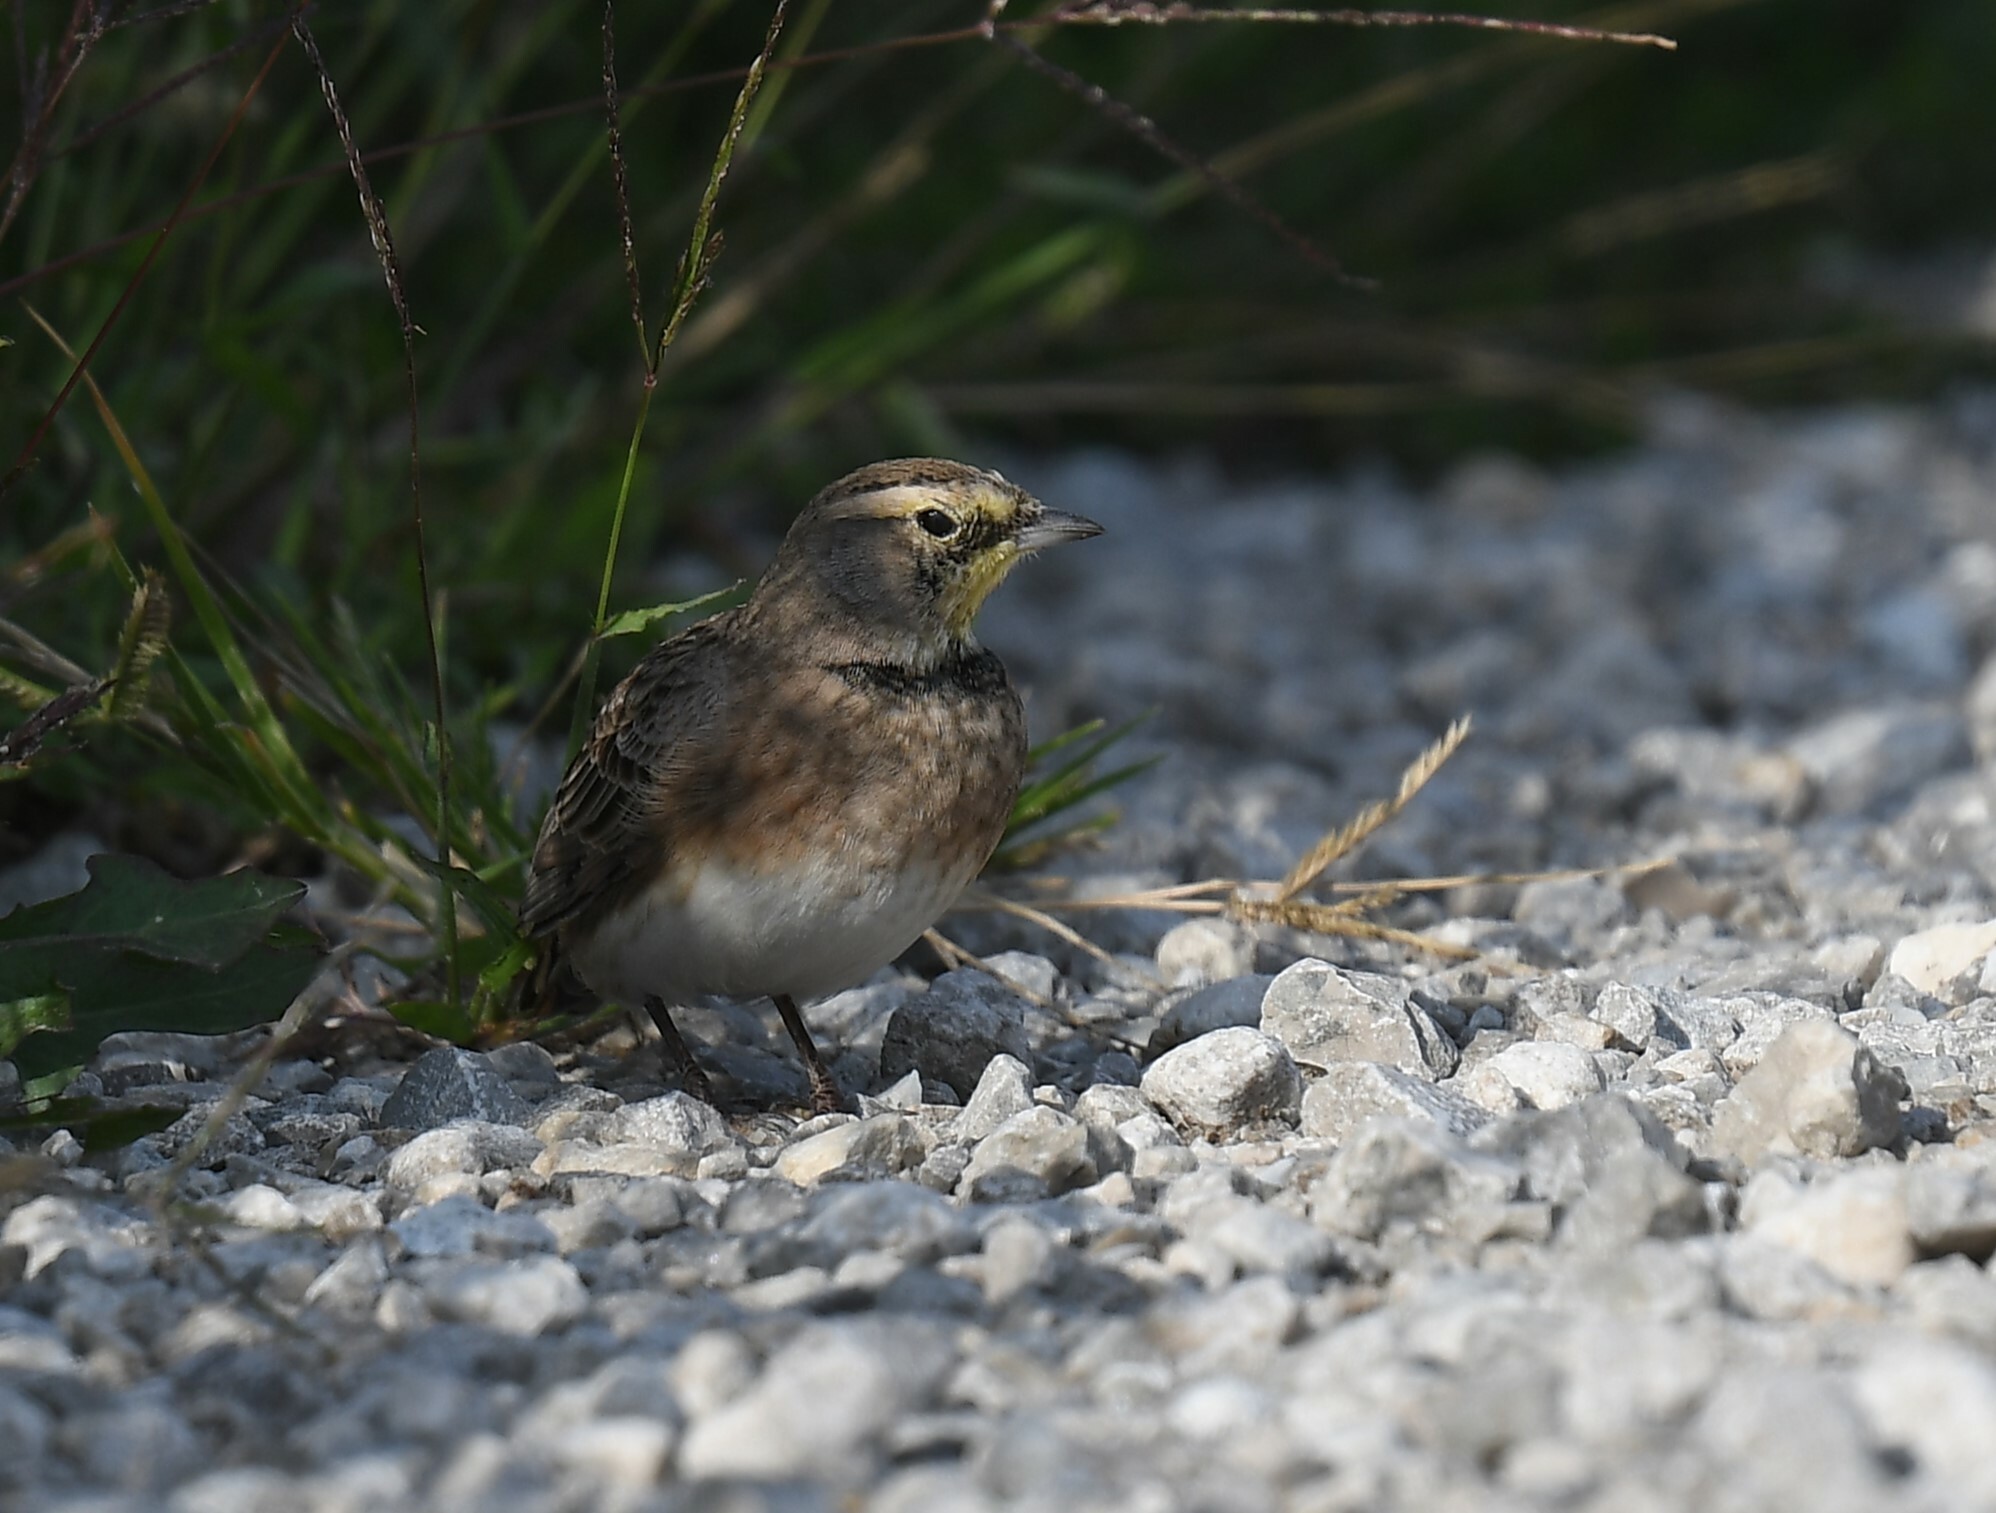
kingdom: Animalia
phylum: Chordata
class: Aves
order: Passeriformes
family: Alaudidae
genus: Eremophila
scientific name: Eremophila alpestris
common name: Horned lark
